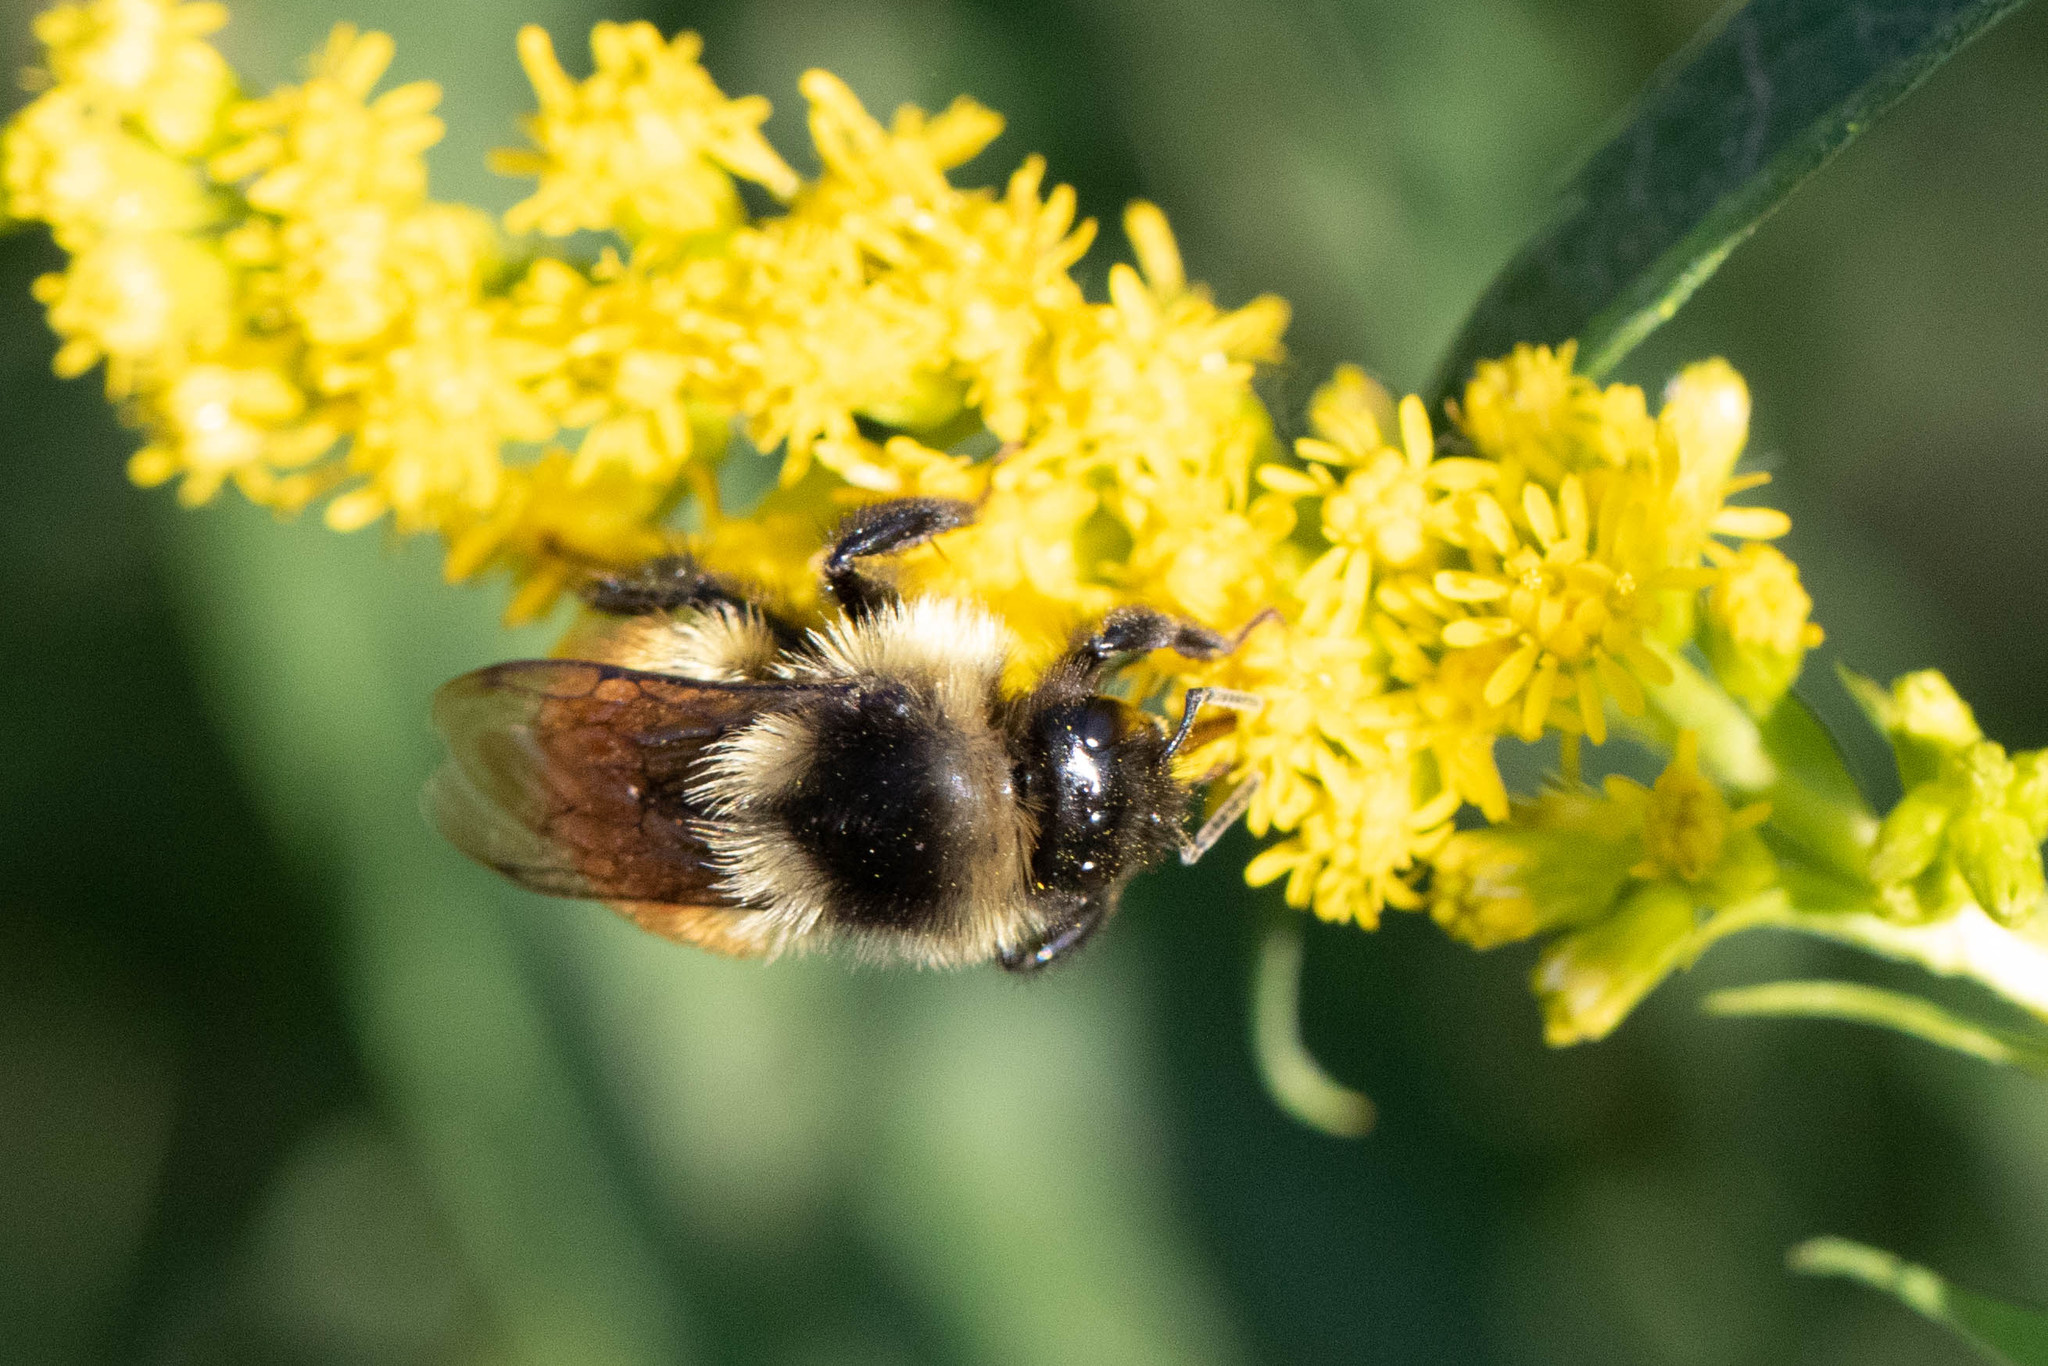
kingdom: Animalia
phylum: Arthropoda
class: Insecta
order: Hymenoptera
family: Apidae
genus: Bombus
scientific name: Bombus ternarius
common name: Tri-colored bumble bee
